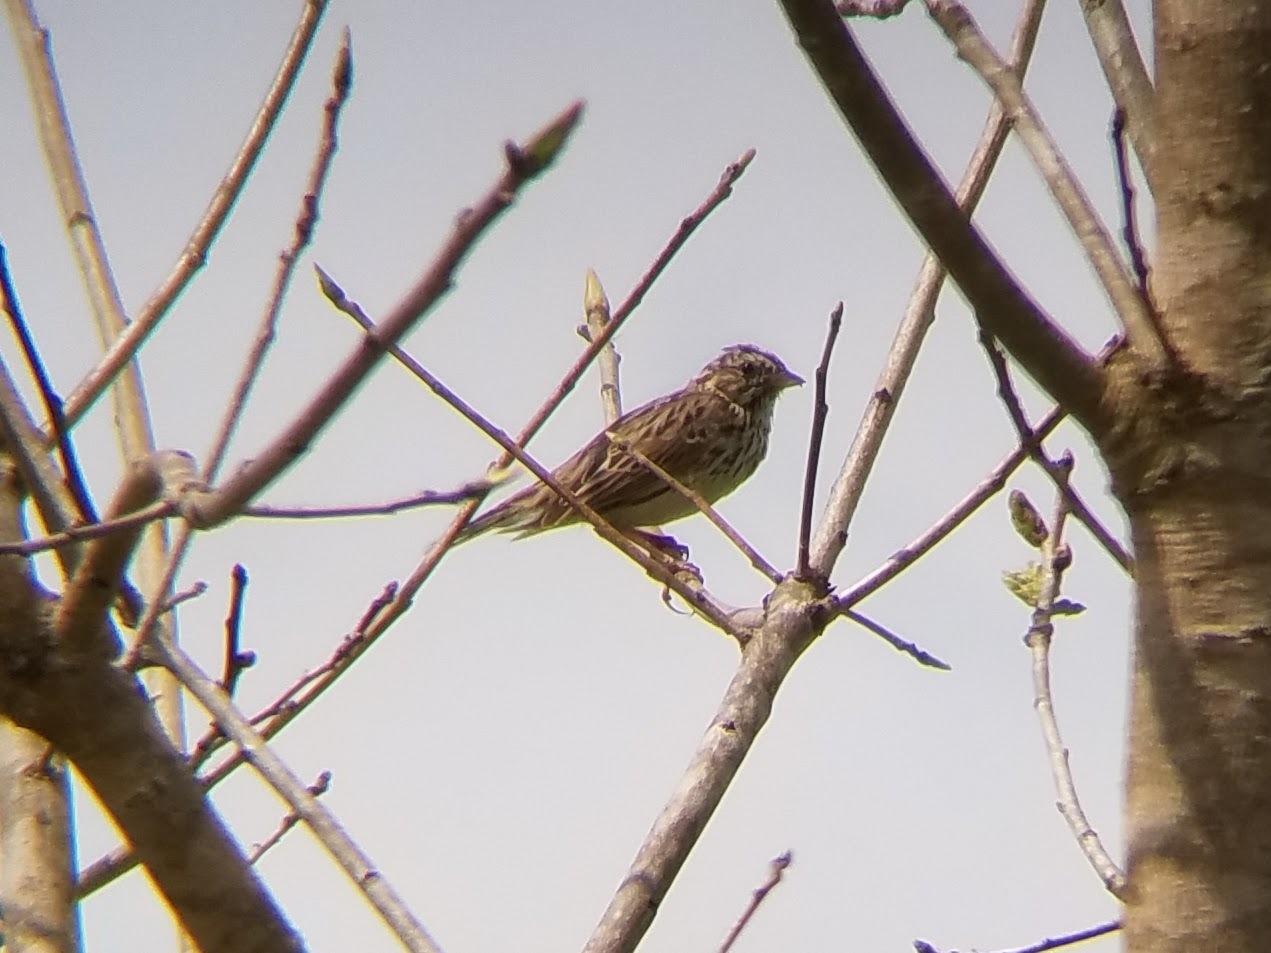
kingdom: Animalia
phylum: Chordata
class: Aves
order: Passeriformes
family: Passerellidae
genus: Passerculus
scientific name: Passerculus sandwichensis
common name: Savannah sparrow
